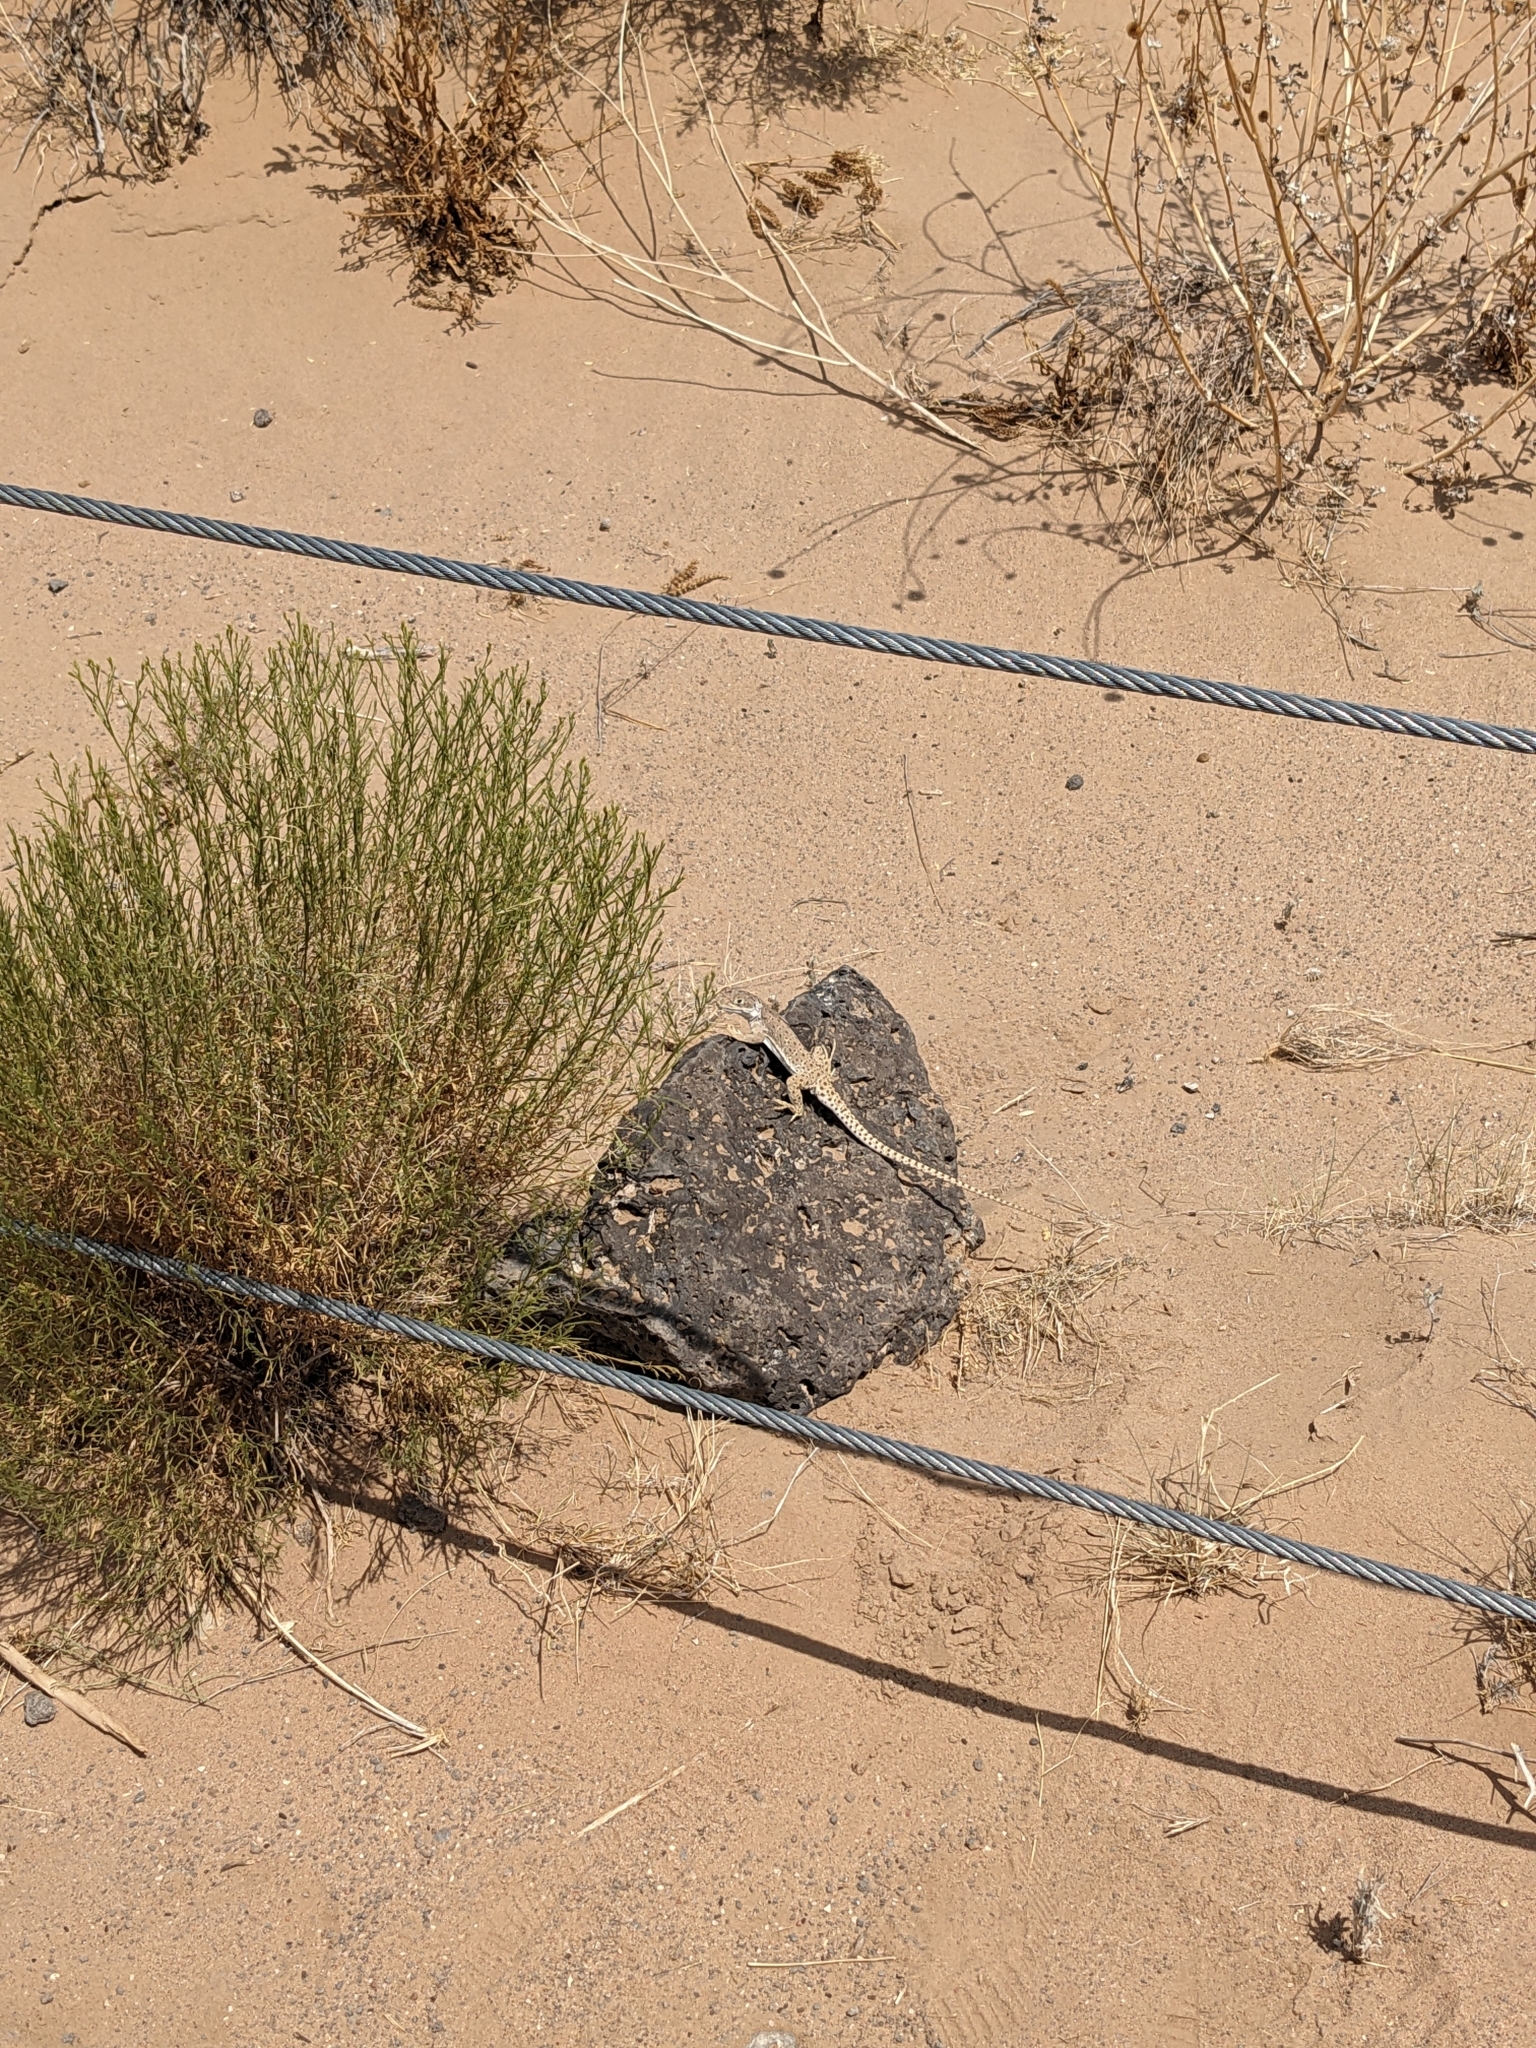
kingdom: Animalia
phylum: Chordata
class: Squamata
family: Crotaphytidae
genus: Gambelia
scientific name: Gambelia wislizenii
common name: Longnose leopard lizard
